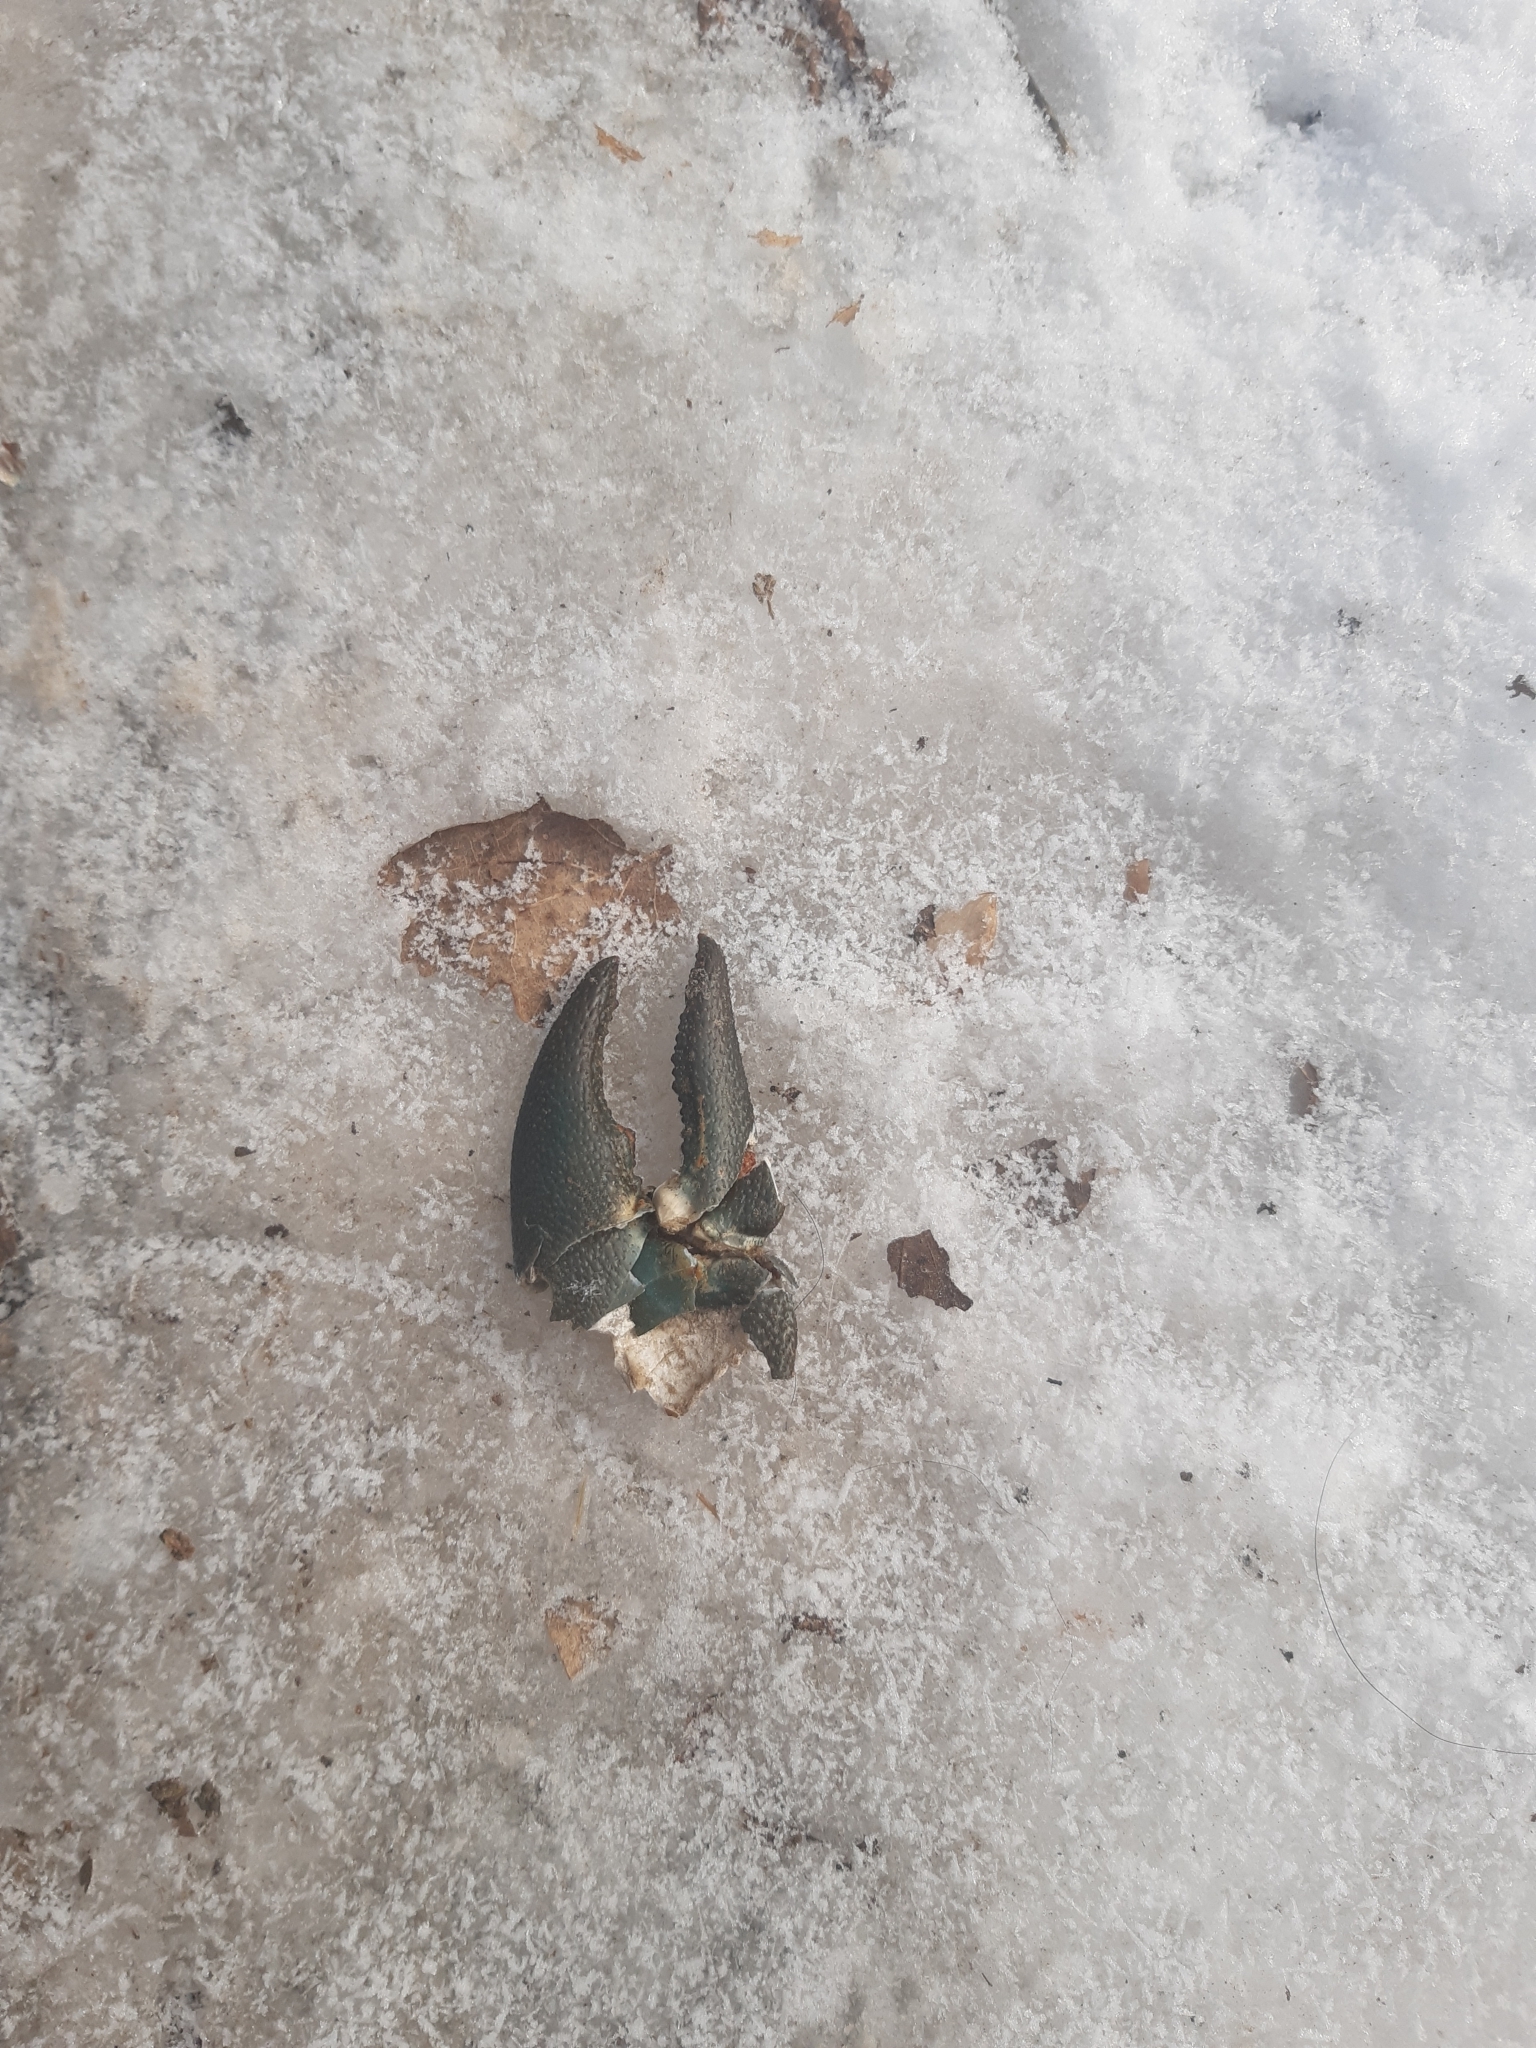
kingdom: Animalia
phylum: Arthropoda
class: Malacostraca
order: Decapoda
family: Astacidae
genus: Pacifastacus
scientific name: Pacifastacus leniusculus
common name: Signal crayfish
